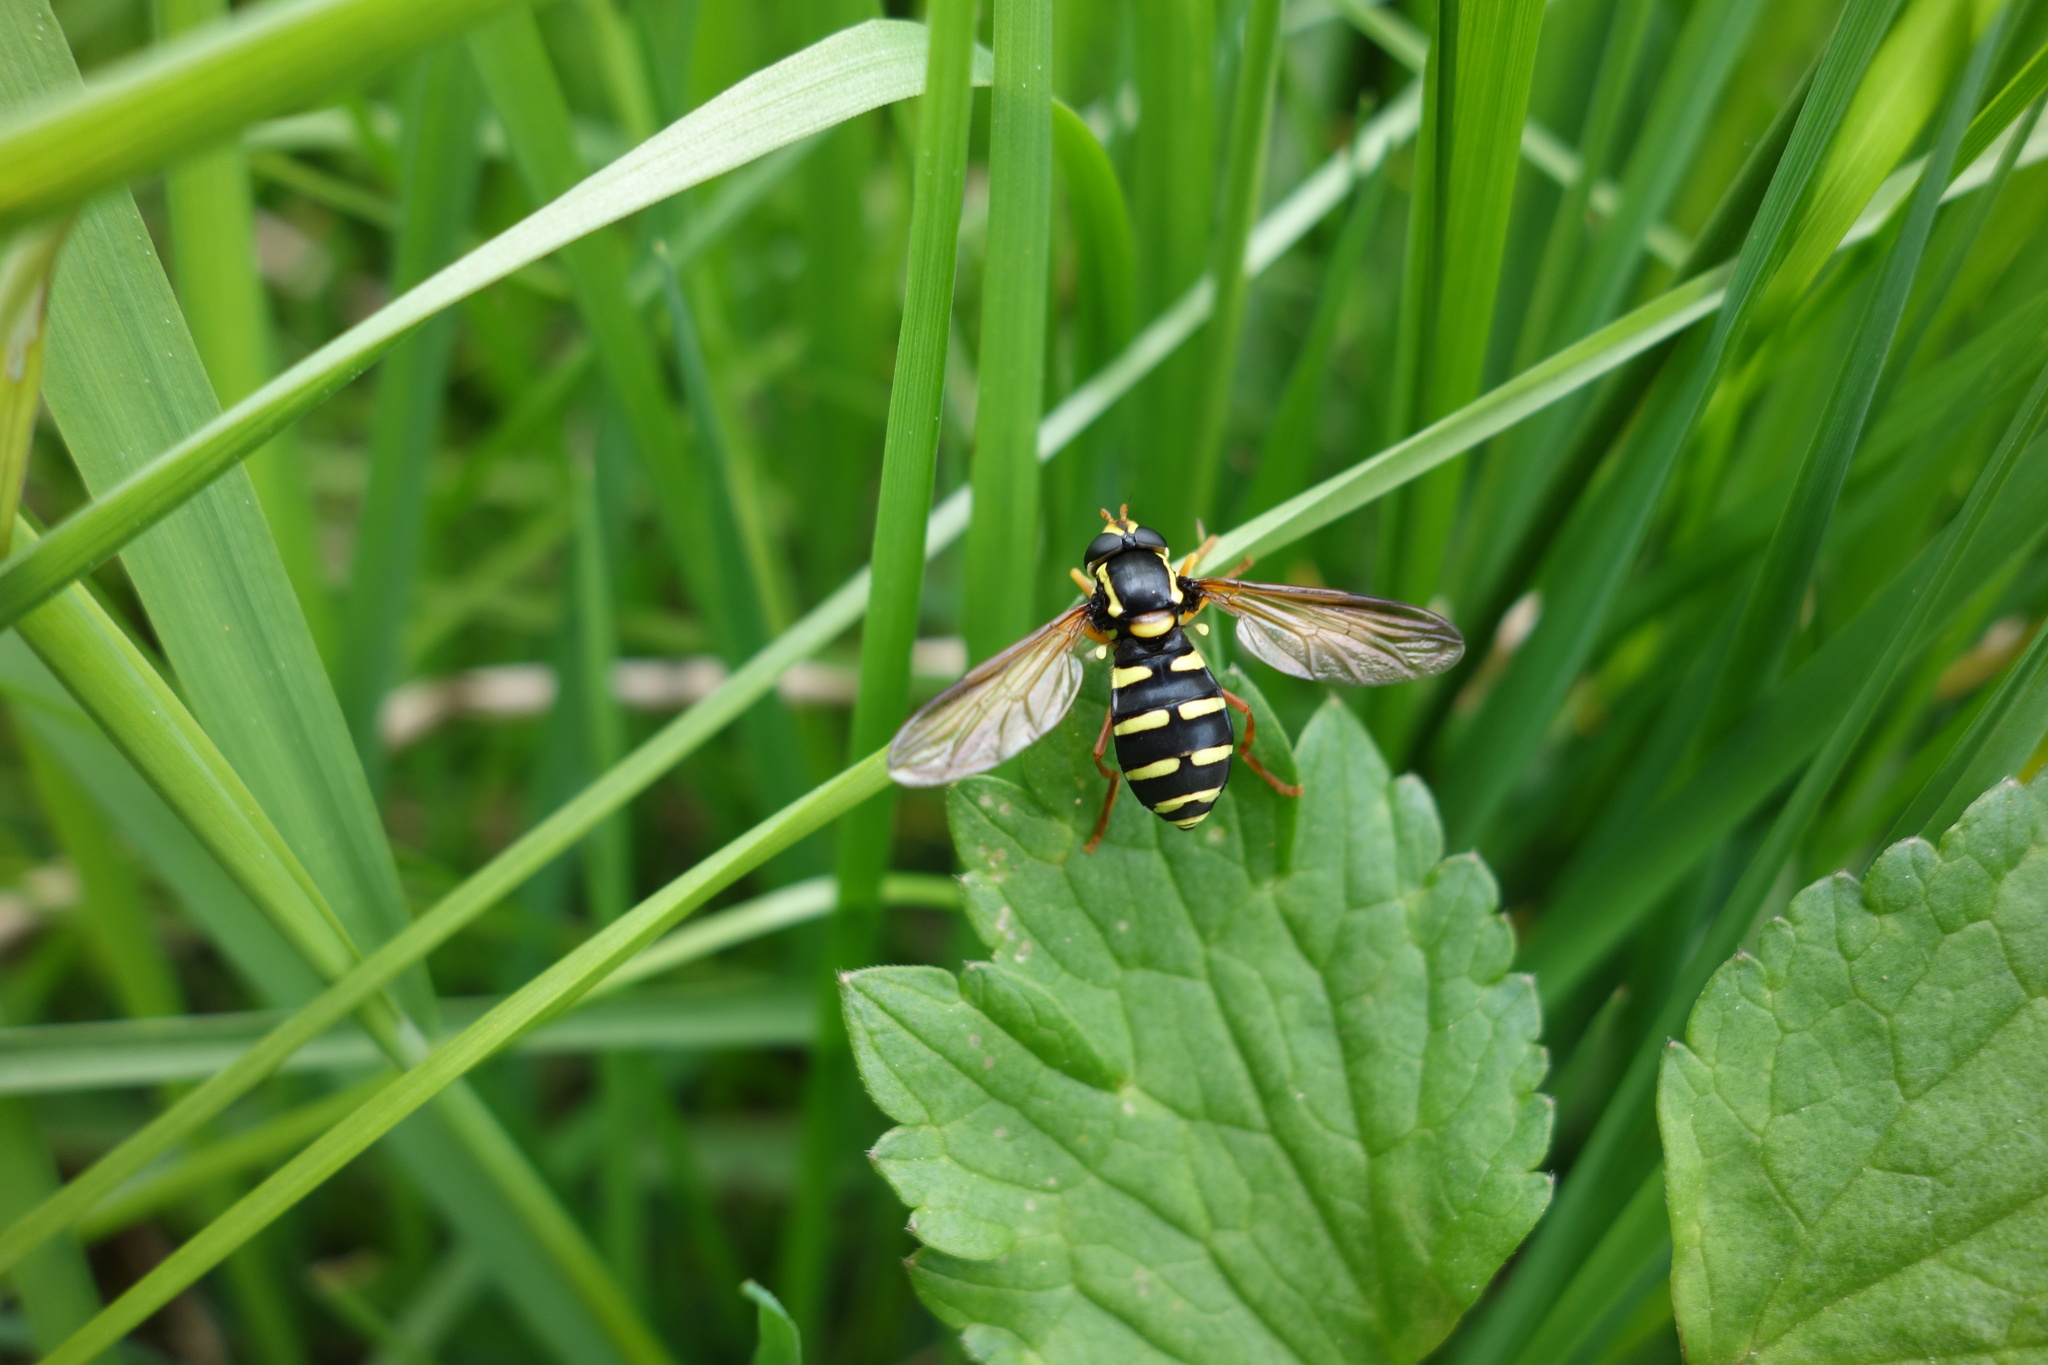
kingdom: Animalia
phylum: Arthropoda
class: Insecta
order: Diptera
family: Syrphidae
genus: Philhelius
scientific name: Philhelius citrofasciata
